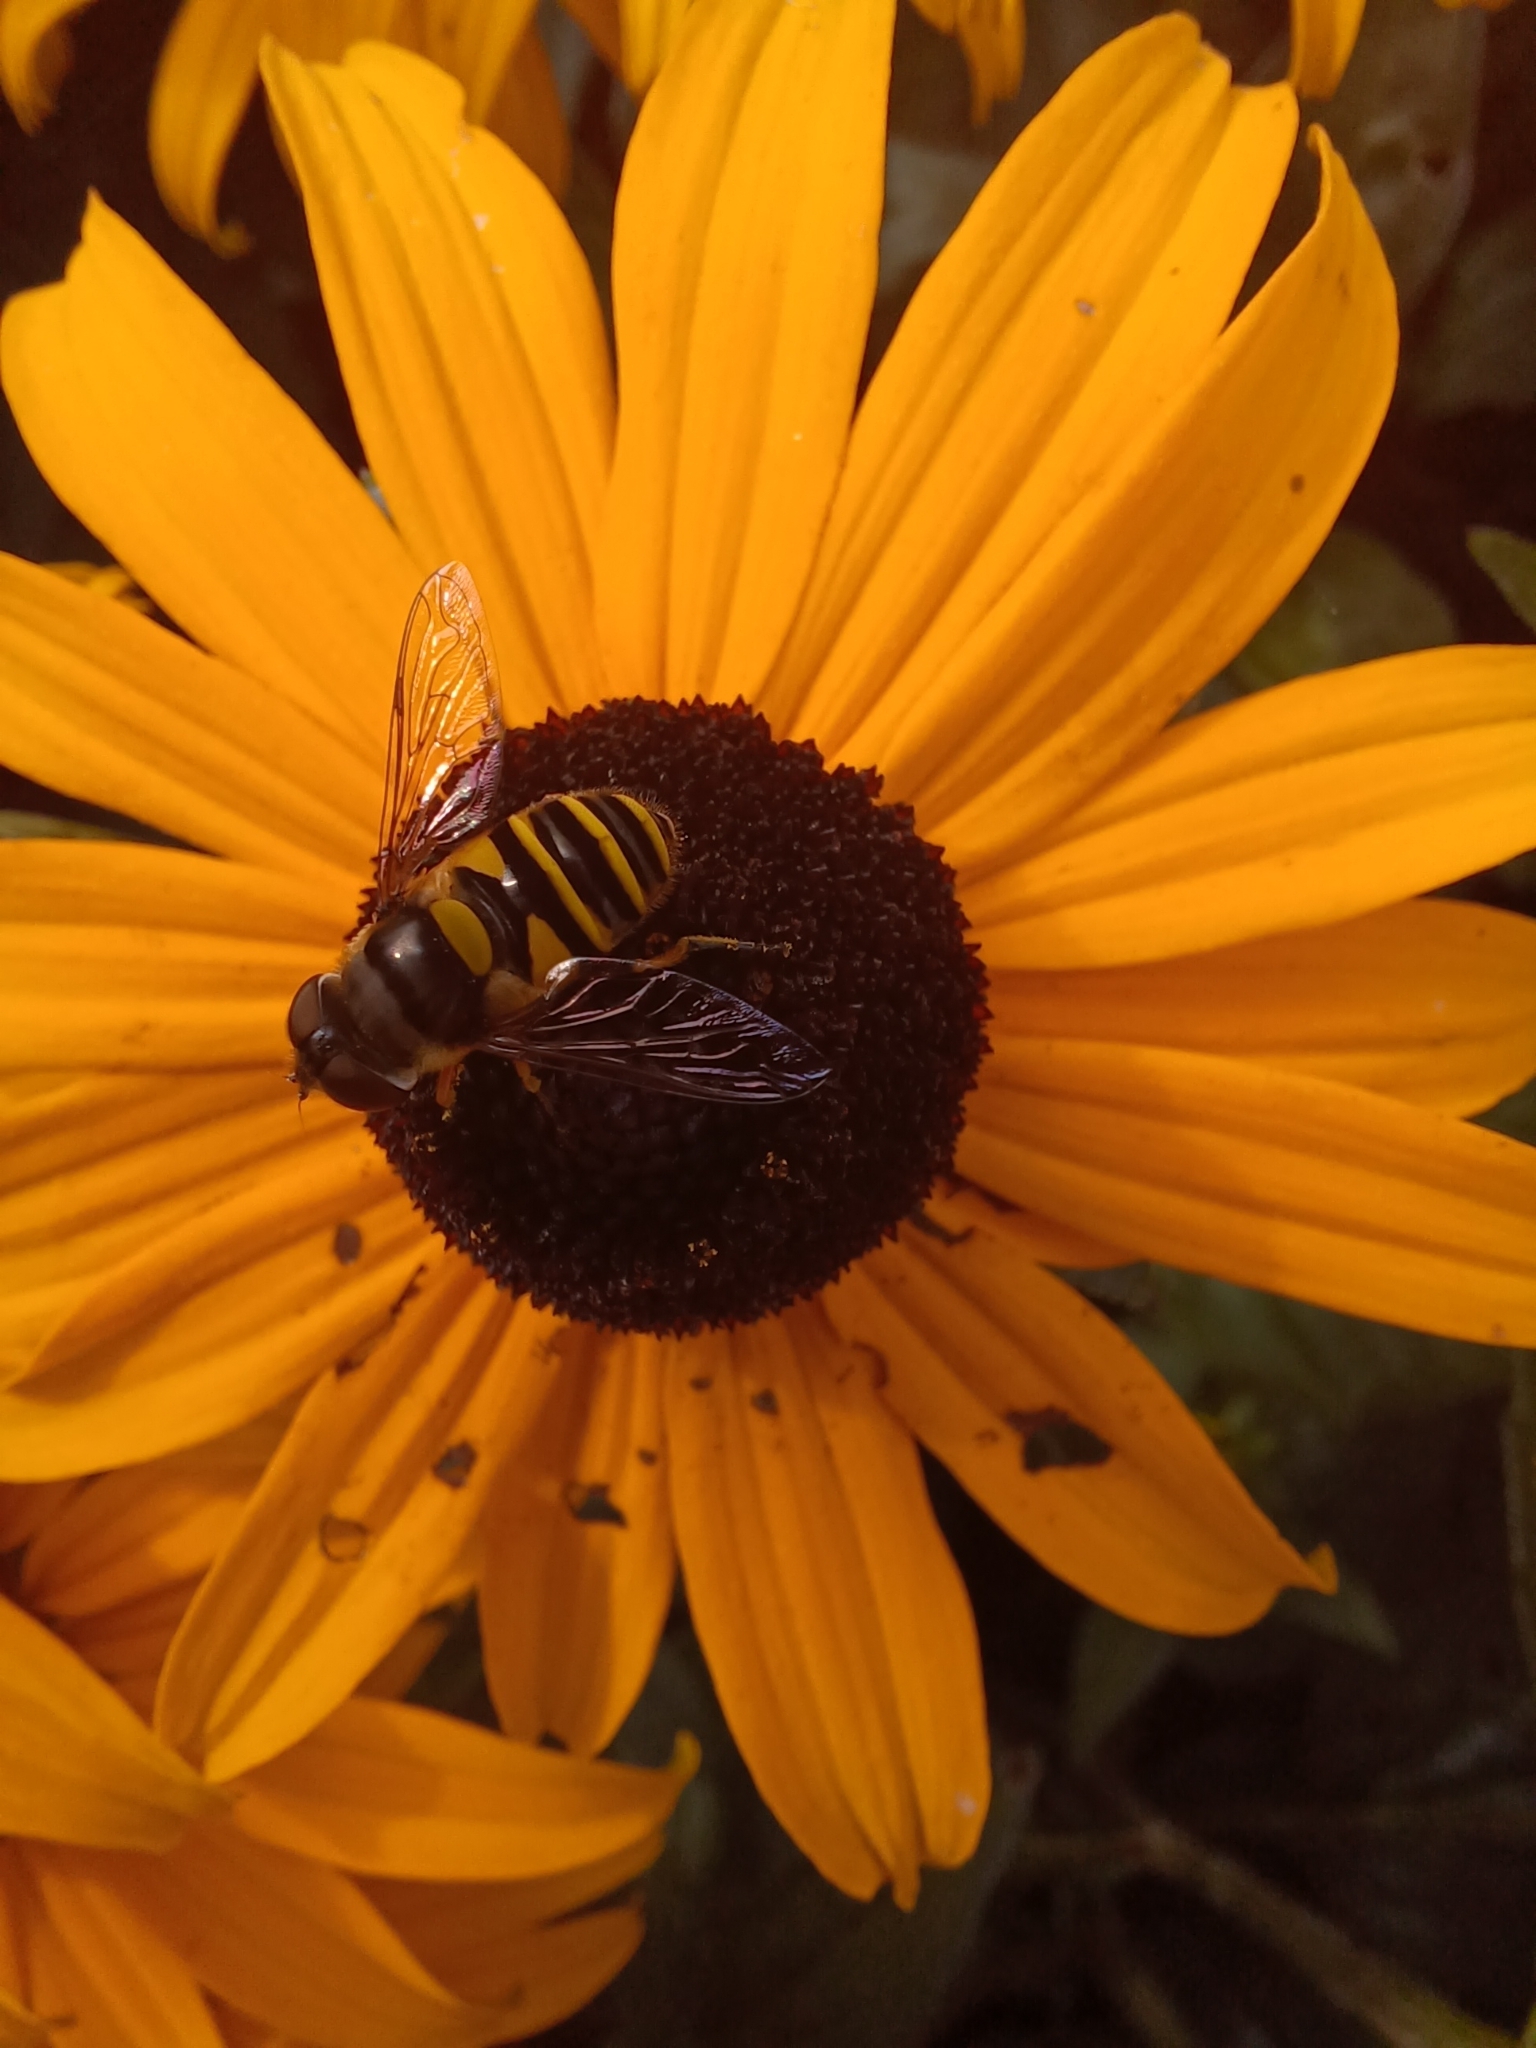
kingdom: Animalia
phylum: Arthropoda
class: Insecta
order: Diptera
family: Syrphidae
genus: Eristalis
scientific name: Eristalis transversa
